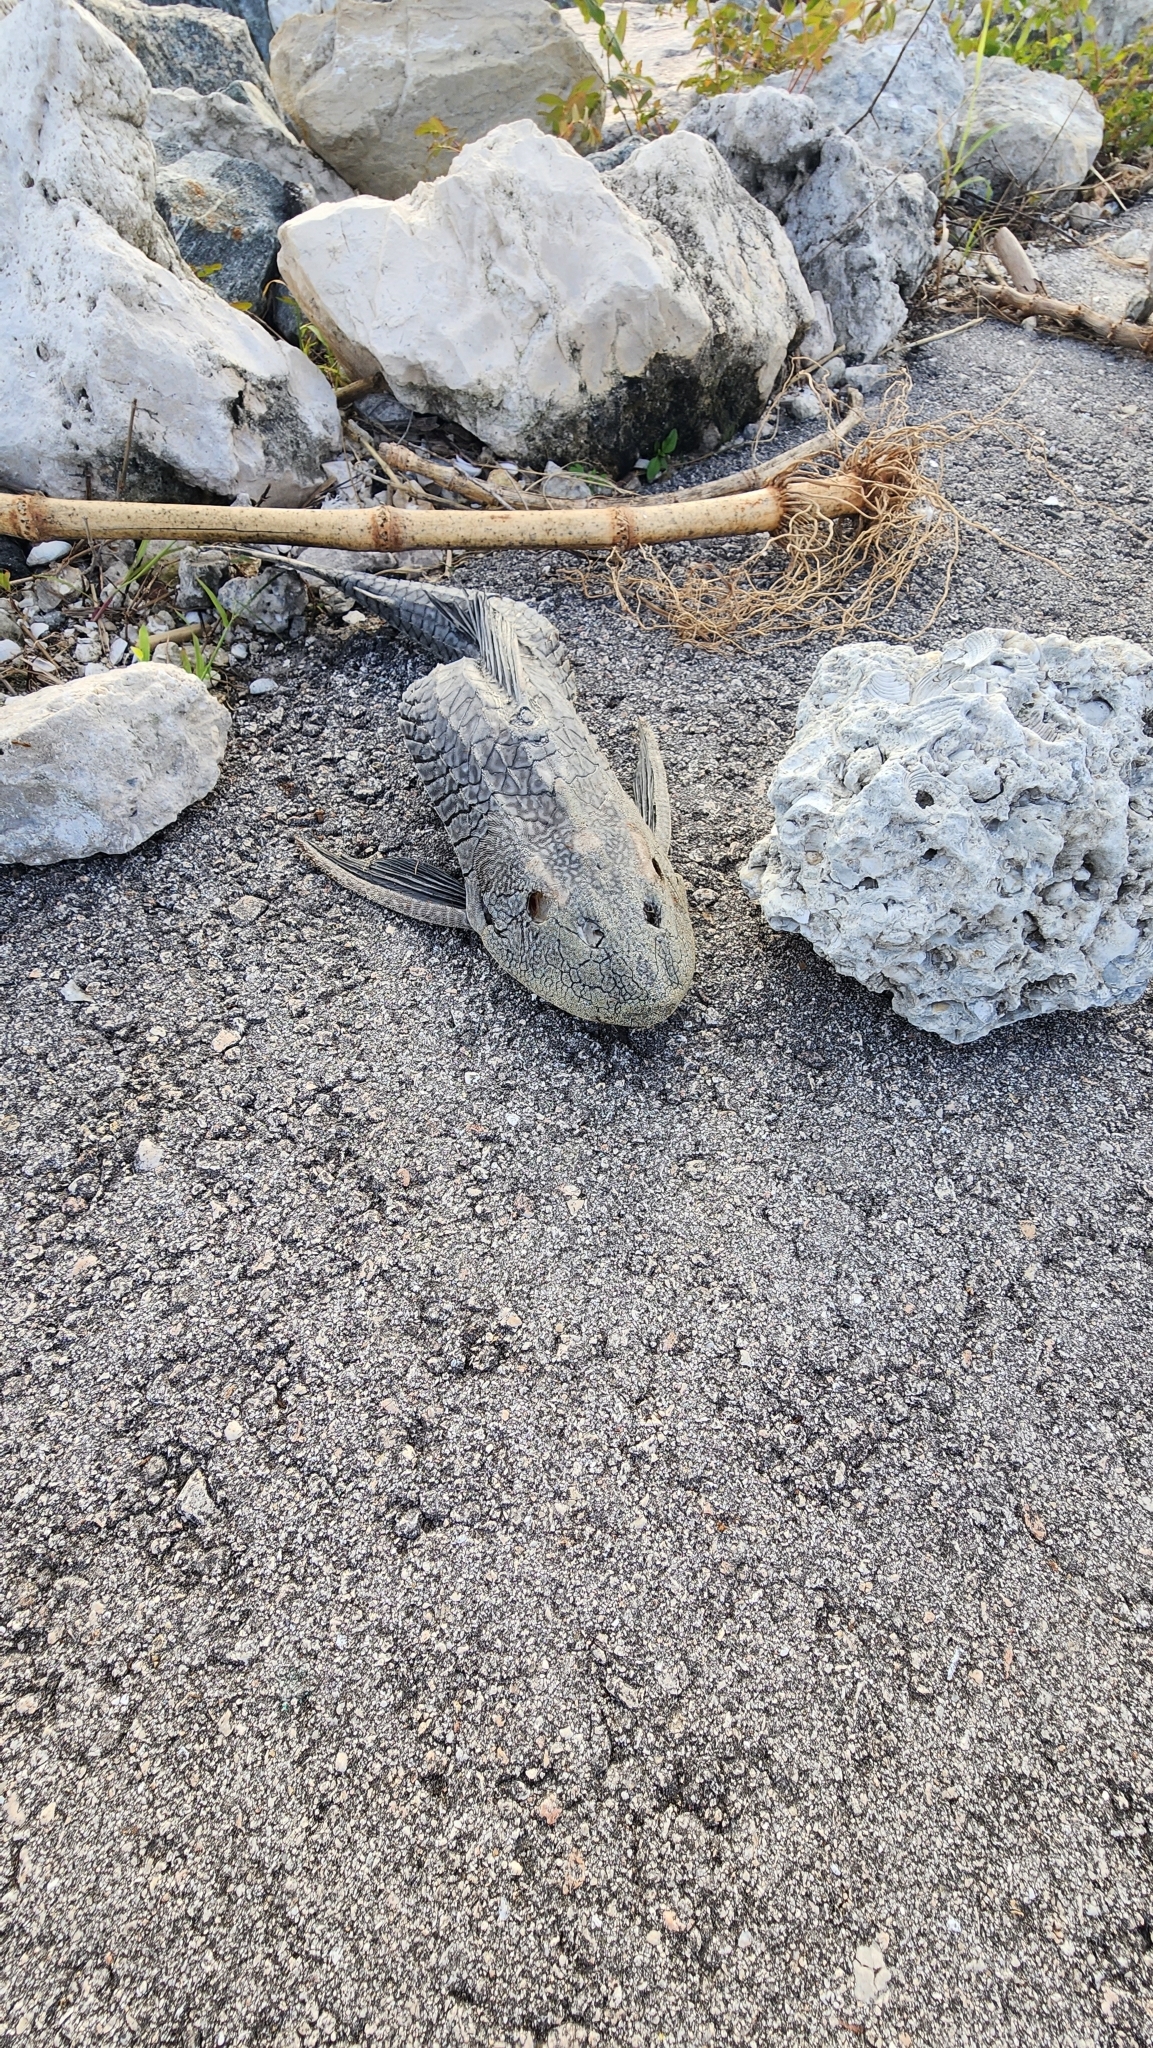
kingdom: Animalia
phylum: Chordata
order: Siluriformes
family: Loricariidae
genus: Pterygoplichthys
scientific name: Pterygoplichthys
